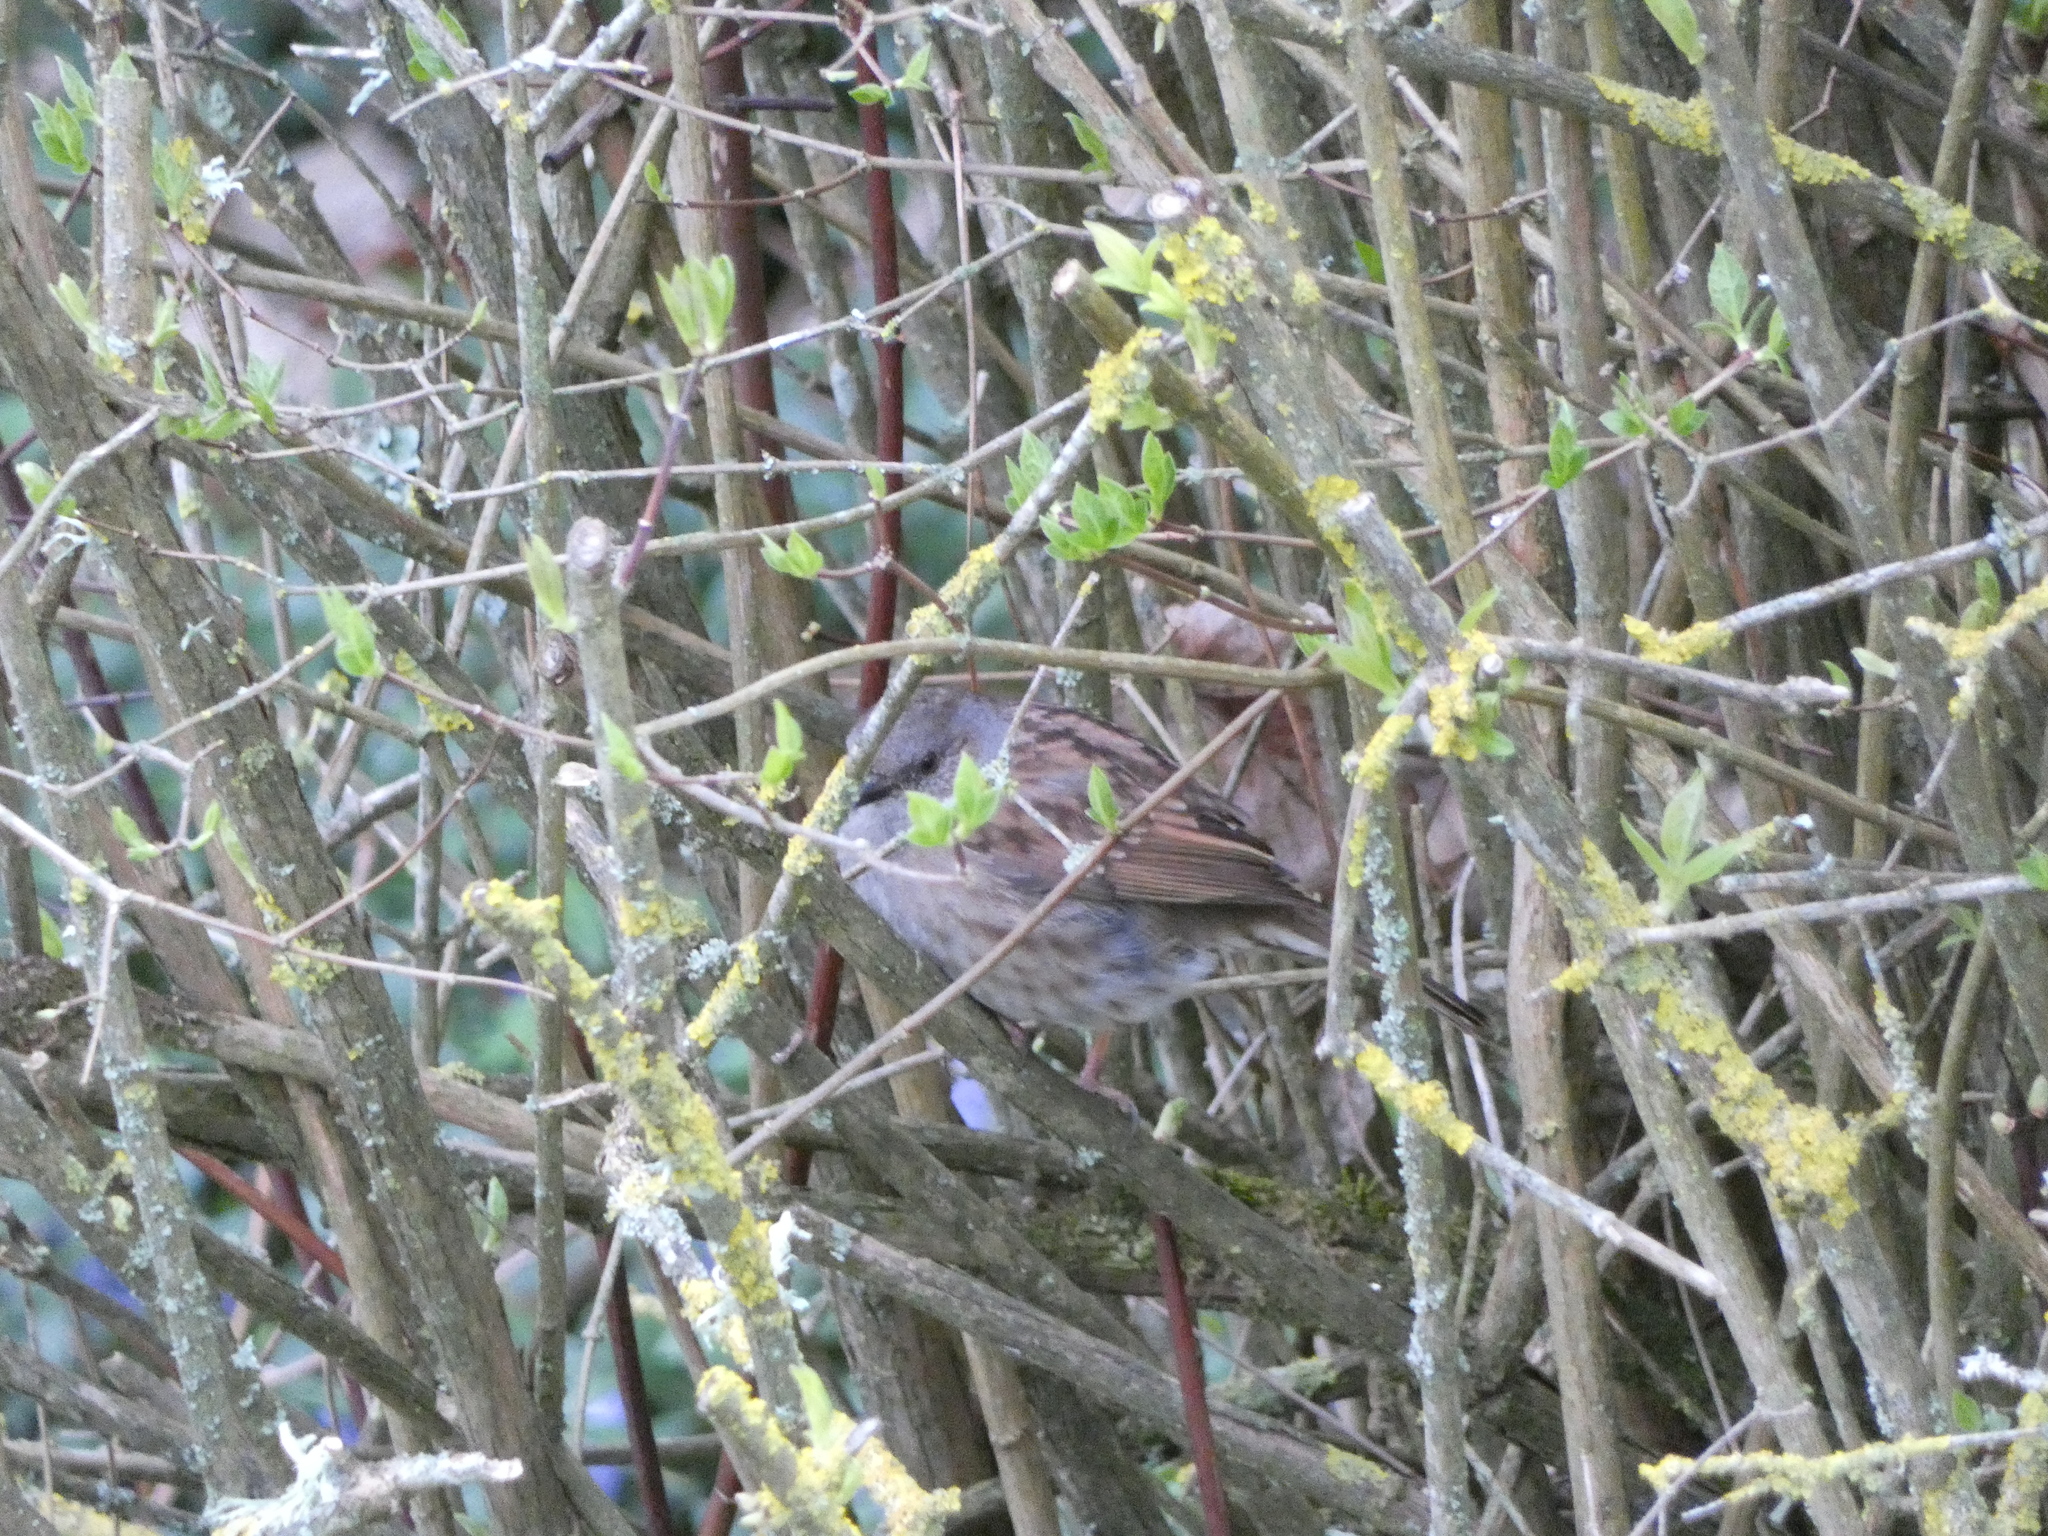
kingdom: Animalia
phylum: Chordata
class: Aves
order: Passeriformes
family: Prunellidae
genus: Prunella
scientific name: Prunella modularis
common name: Dunnock
